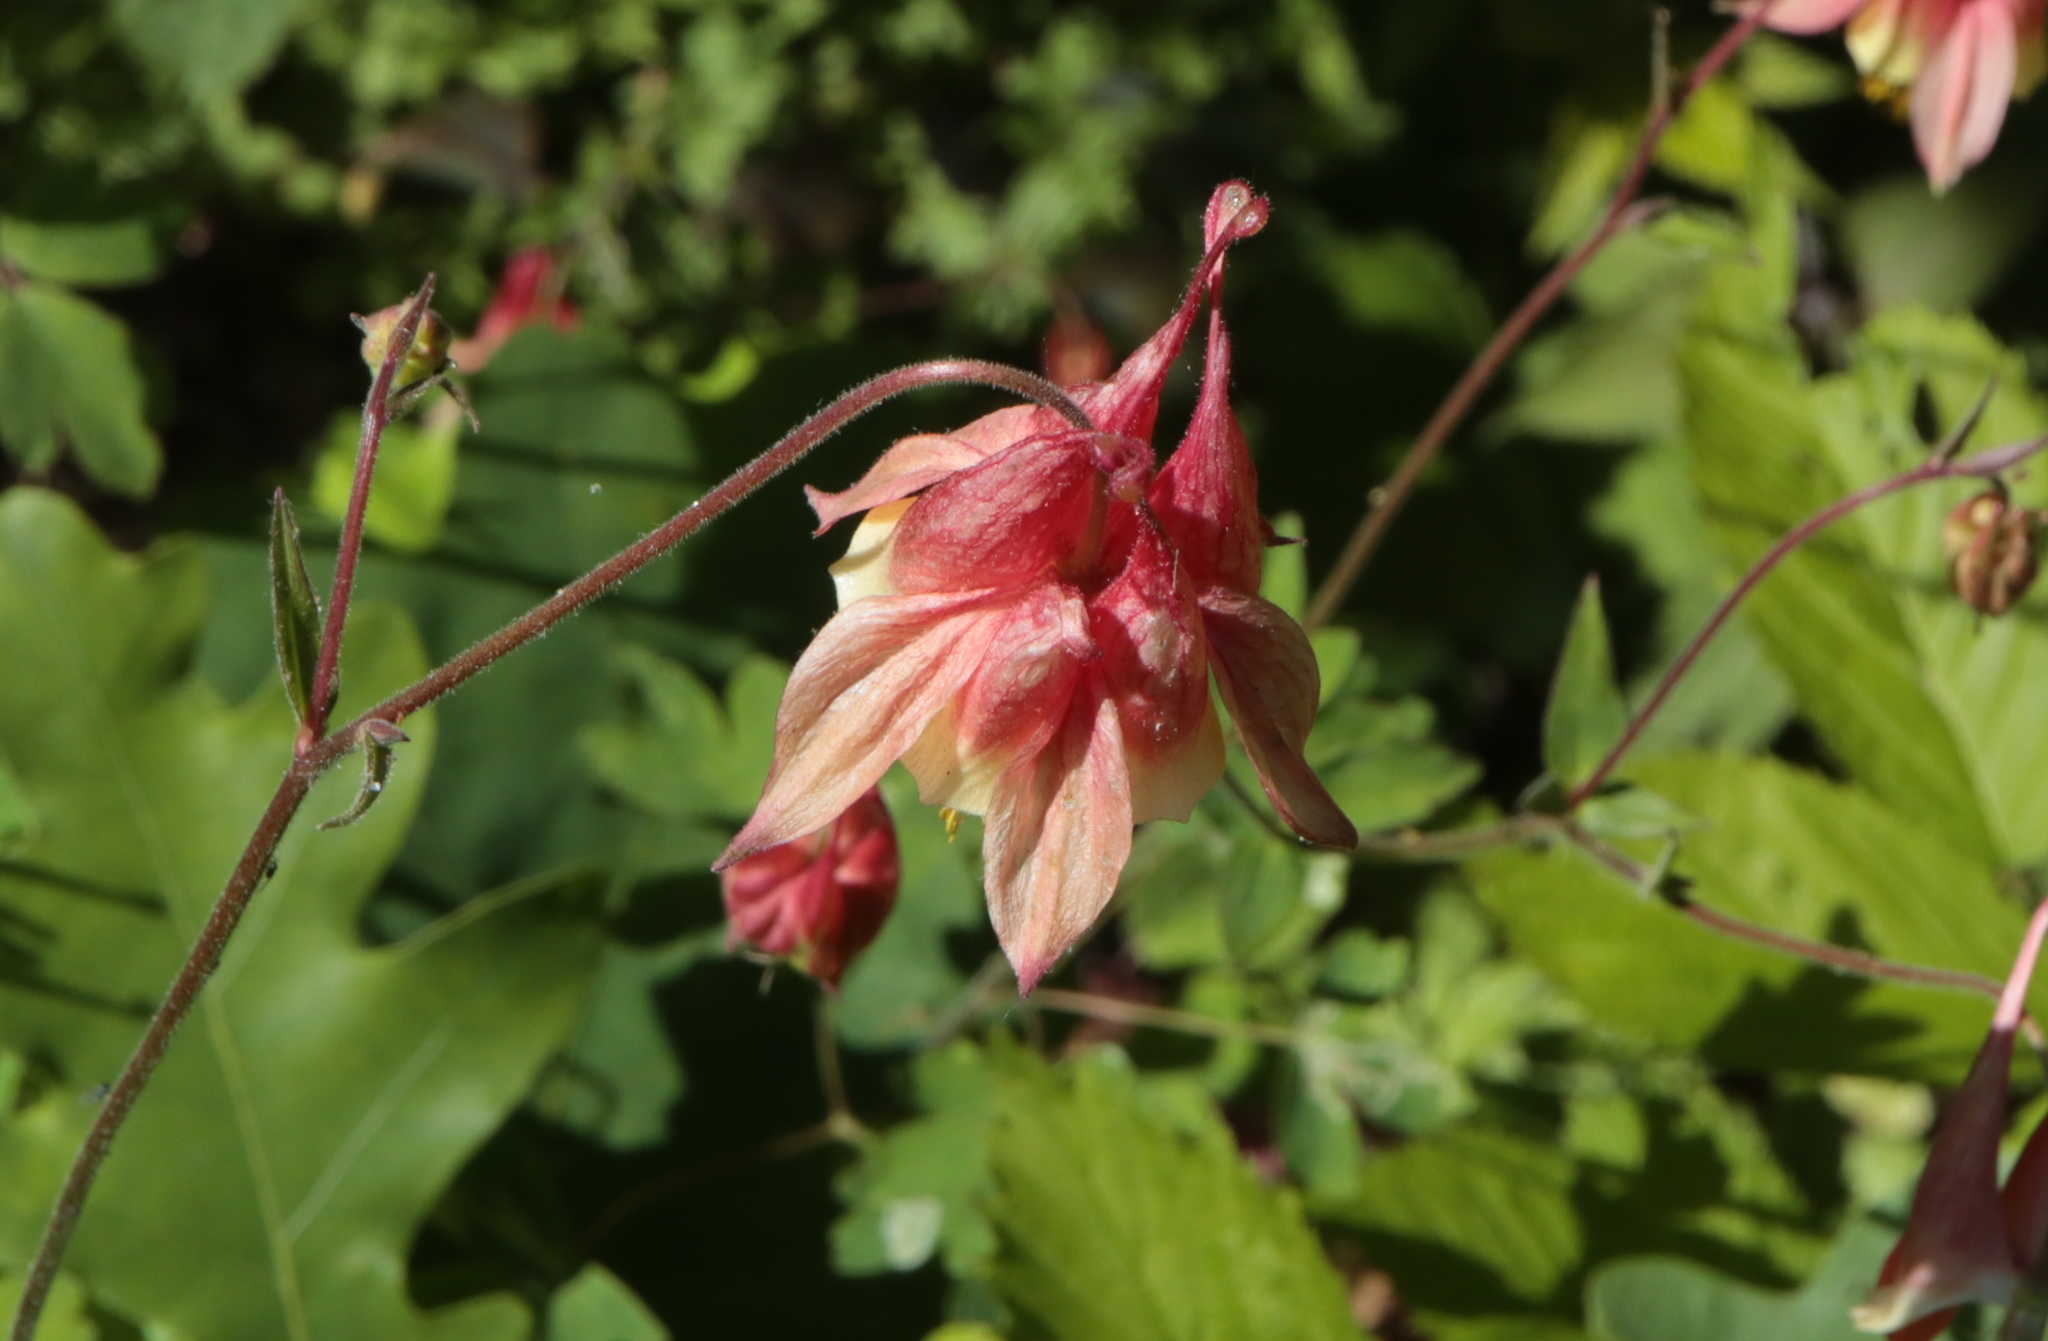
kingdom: Plantae
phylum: Tracheophyta
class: Magnoliopsida
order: Ranunculales
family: Ranunculaceae
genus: Aquilegia
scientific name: Aquilegia canadensis
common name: American columbine
